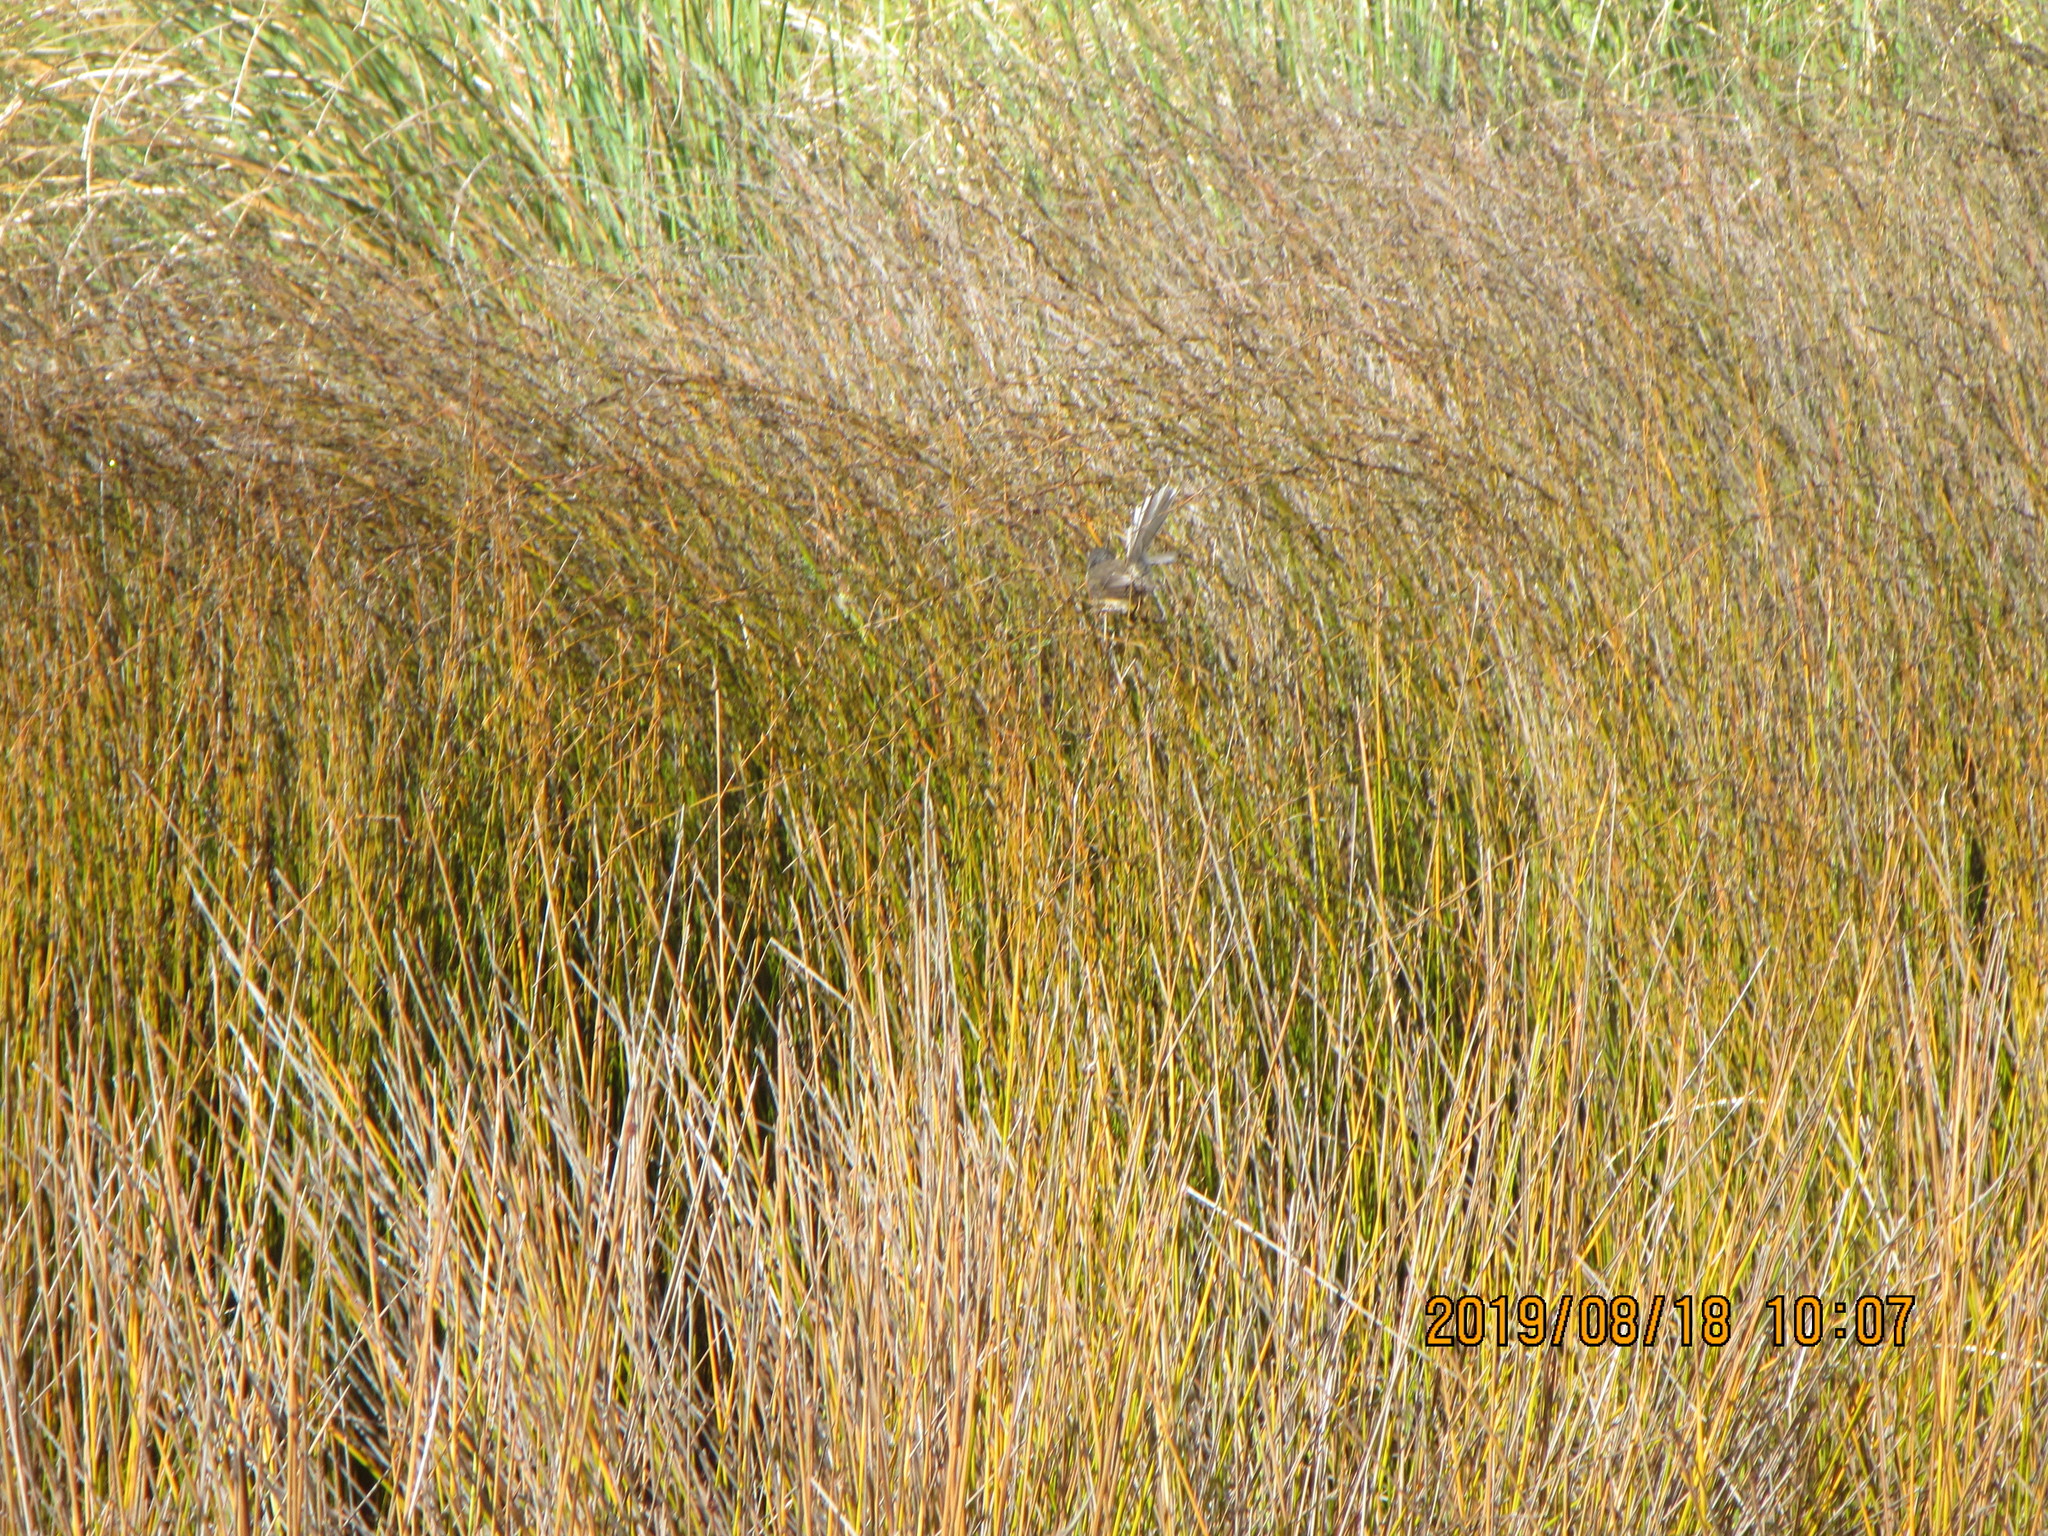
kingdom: Animalia
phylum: Chordata
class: Aves
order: Passeriformes
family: Rhipiduridae
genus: Rhipidura
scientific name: Rhipidura fuliginosa
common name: New zealand fantail
